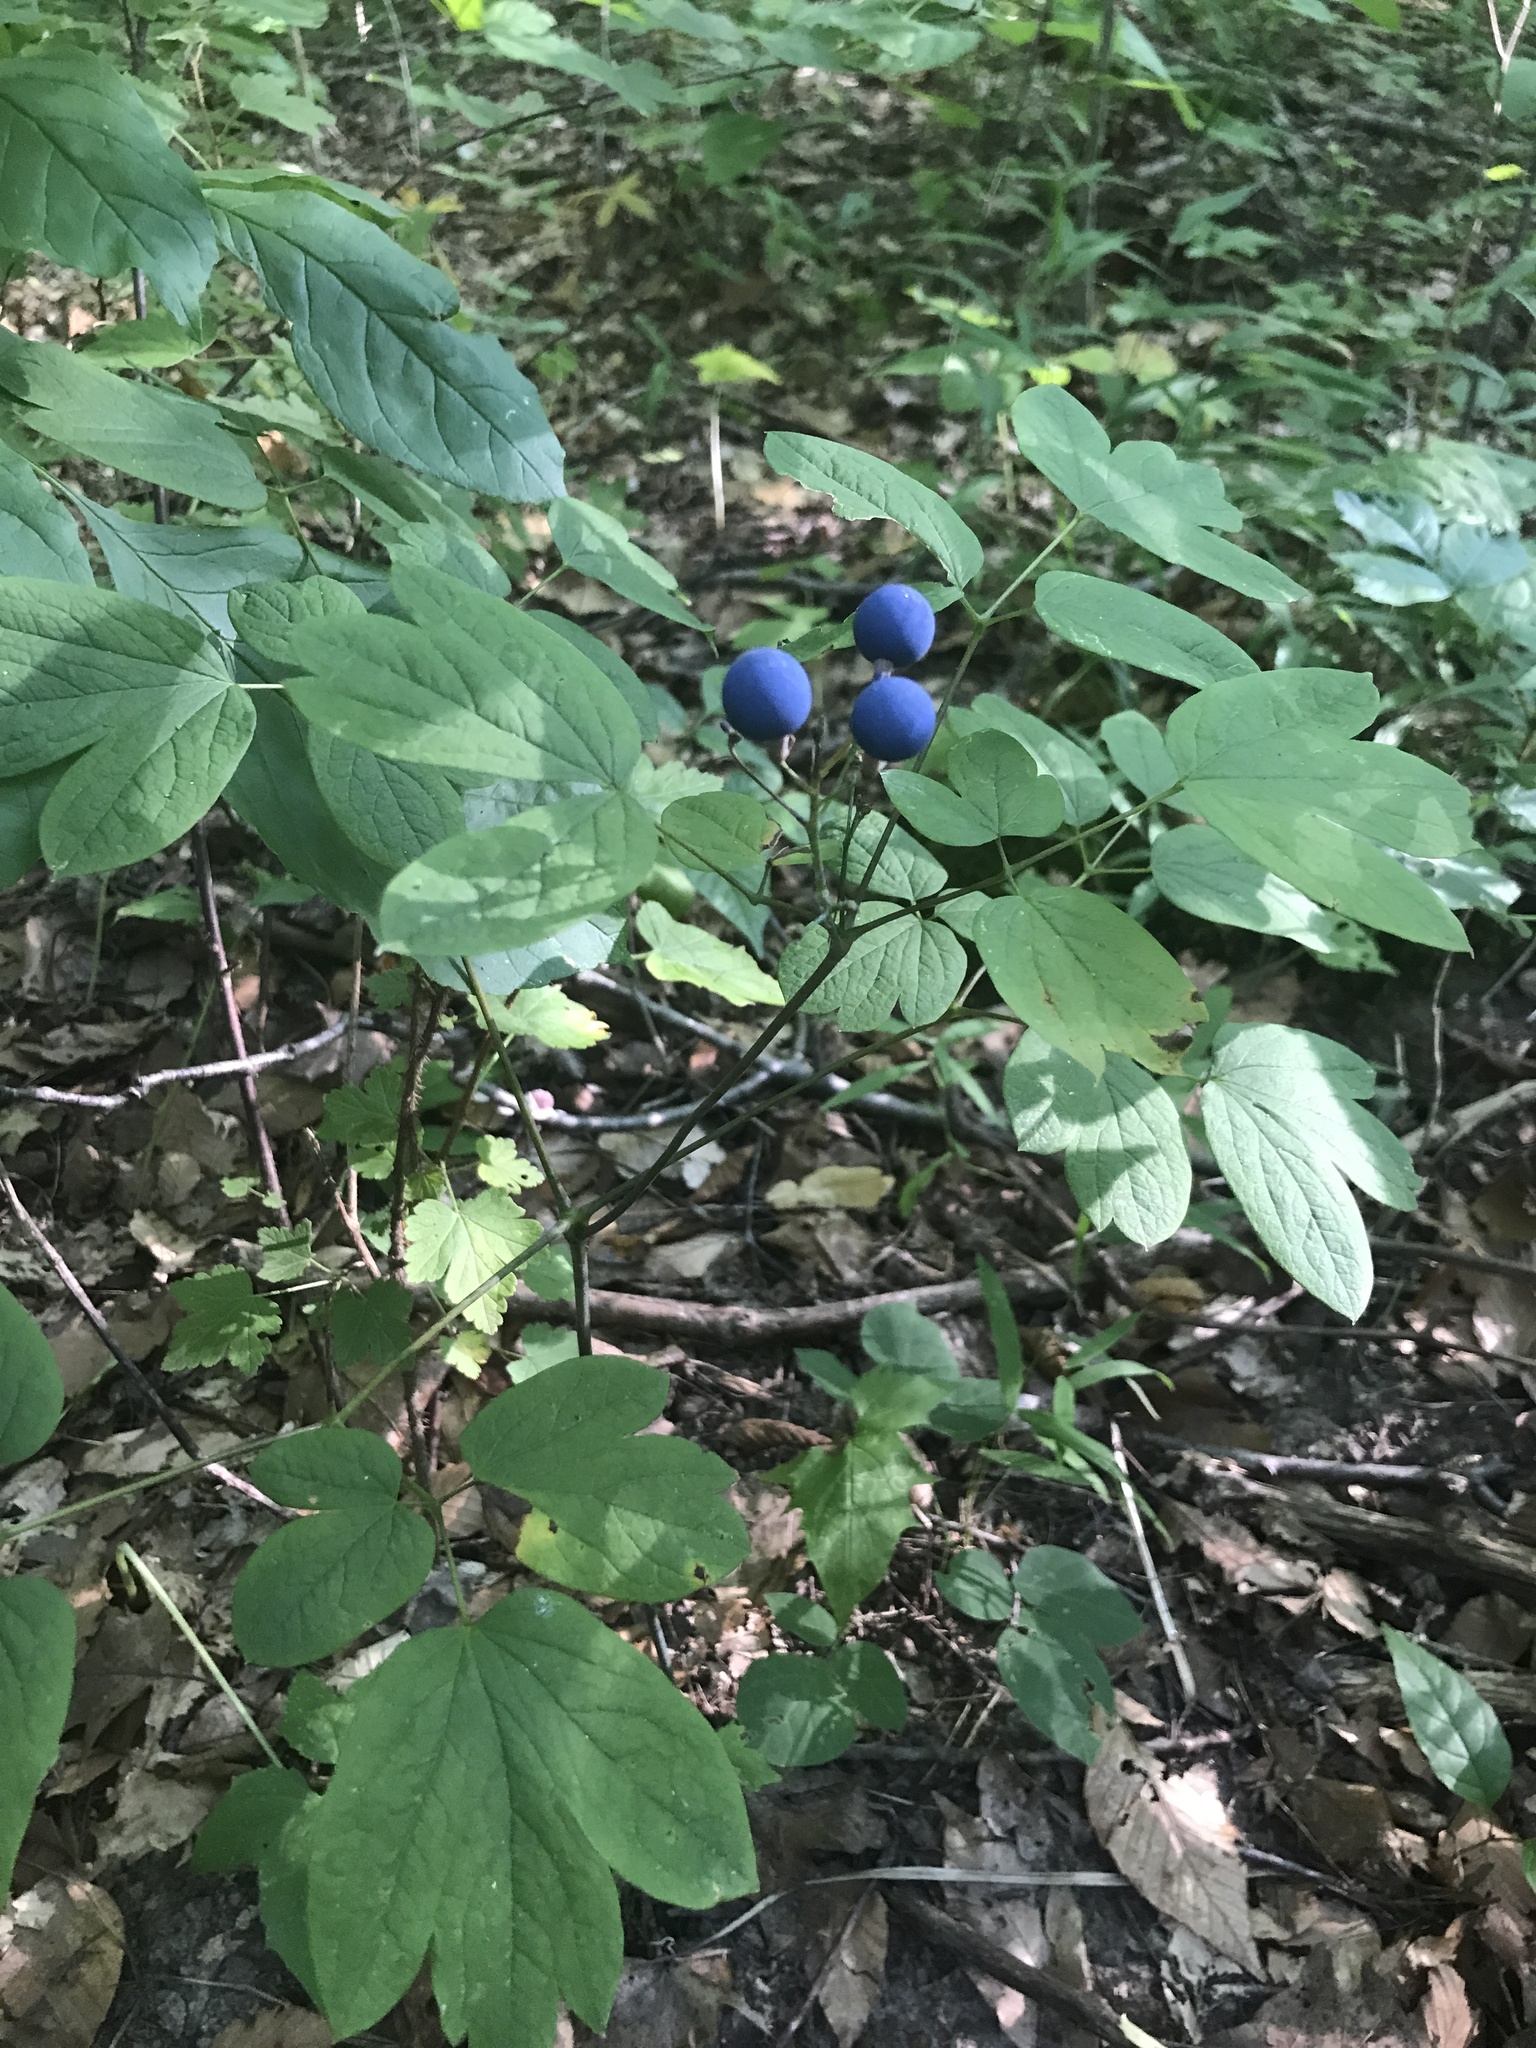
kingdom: Plantae
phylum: Tracheophyta
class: Magnoliopsida
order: Ranunculales
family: Berberidaceae
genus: Caulophyllum
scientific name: Caulophyllum thalictroides
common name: Blue cohosh
